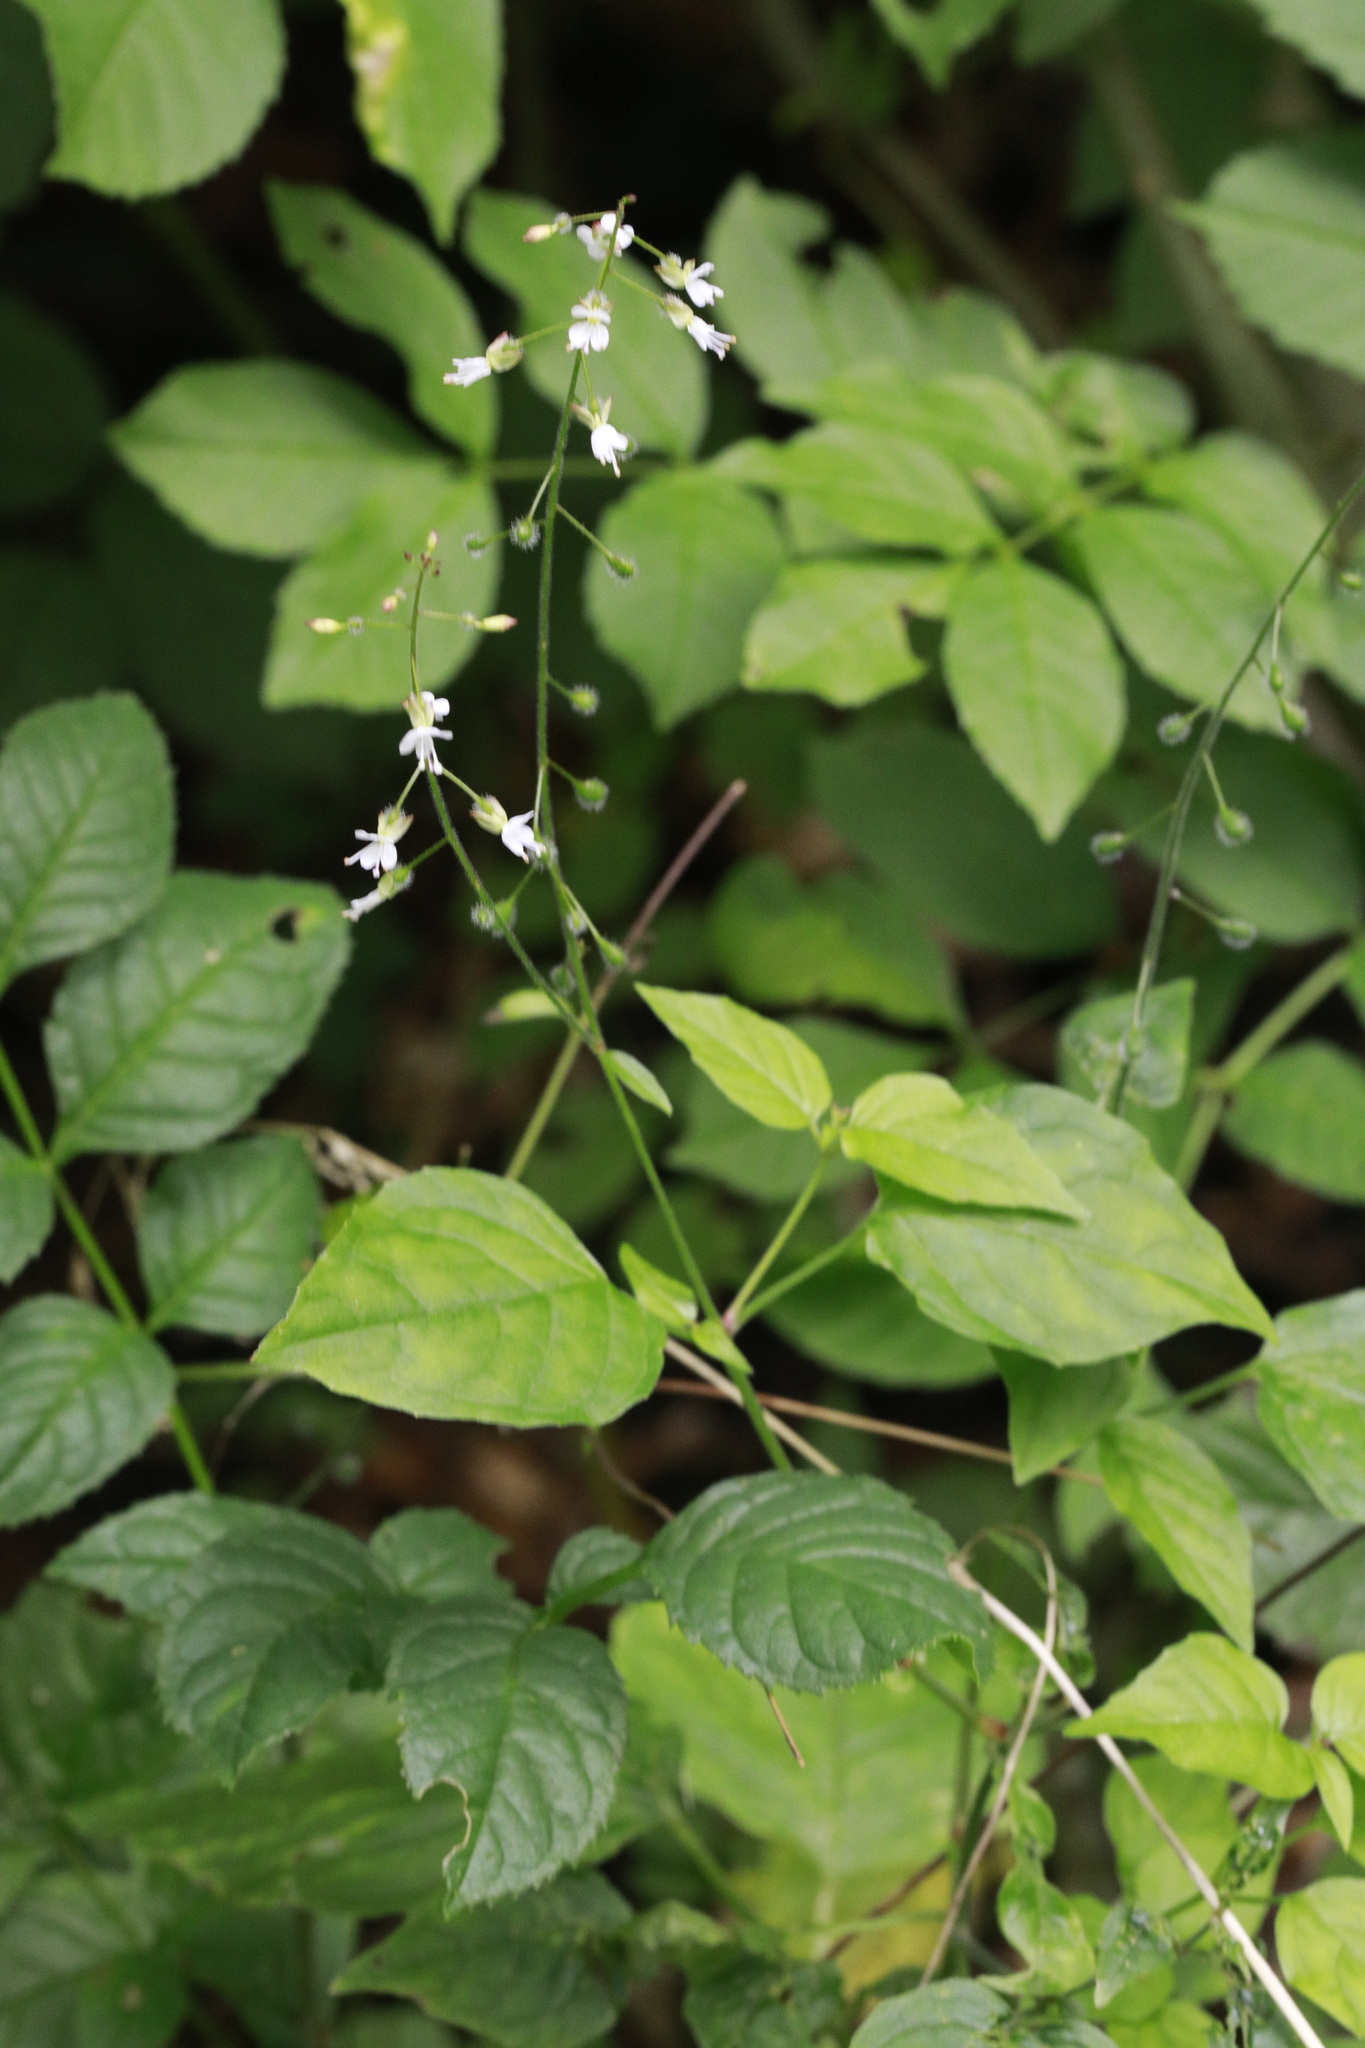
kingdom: Plantae
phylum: Tracheophyta
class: Magnoliopsida
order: Myrtales
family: Onagraceae
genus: Circaea
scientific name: Circaea lutetiana
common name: Enchanter's-nightshade
